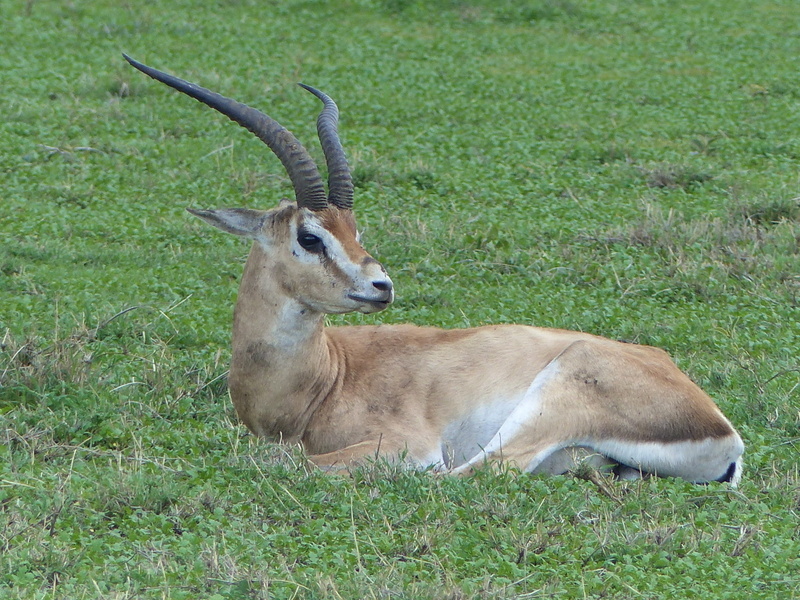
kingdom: Animalia
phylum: Chordata
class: Mammalia
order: Artiodactyla
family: Bovidae
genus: Nanger
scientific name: Nanger granti
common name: Grant's gazelle
